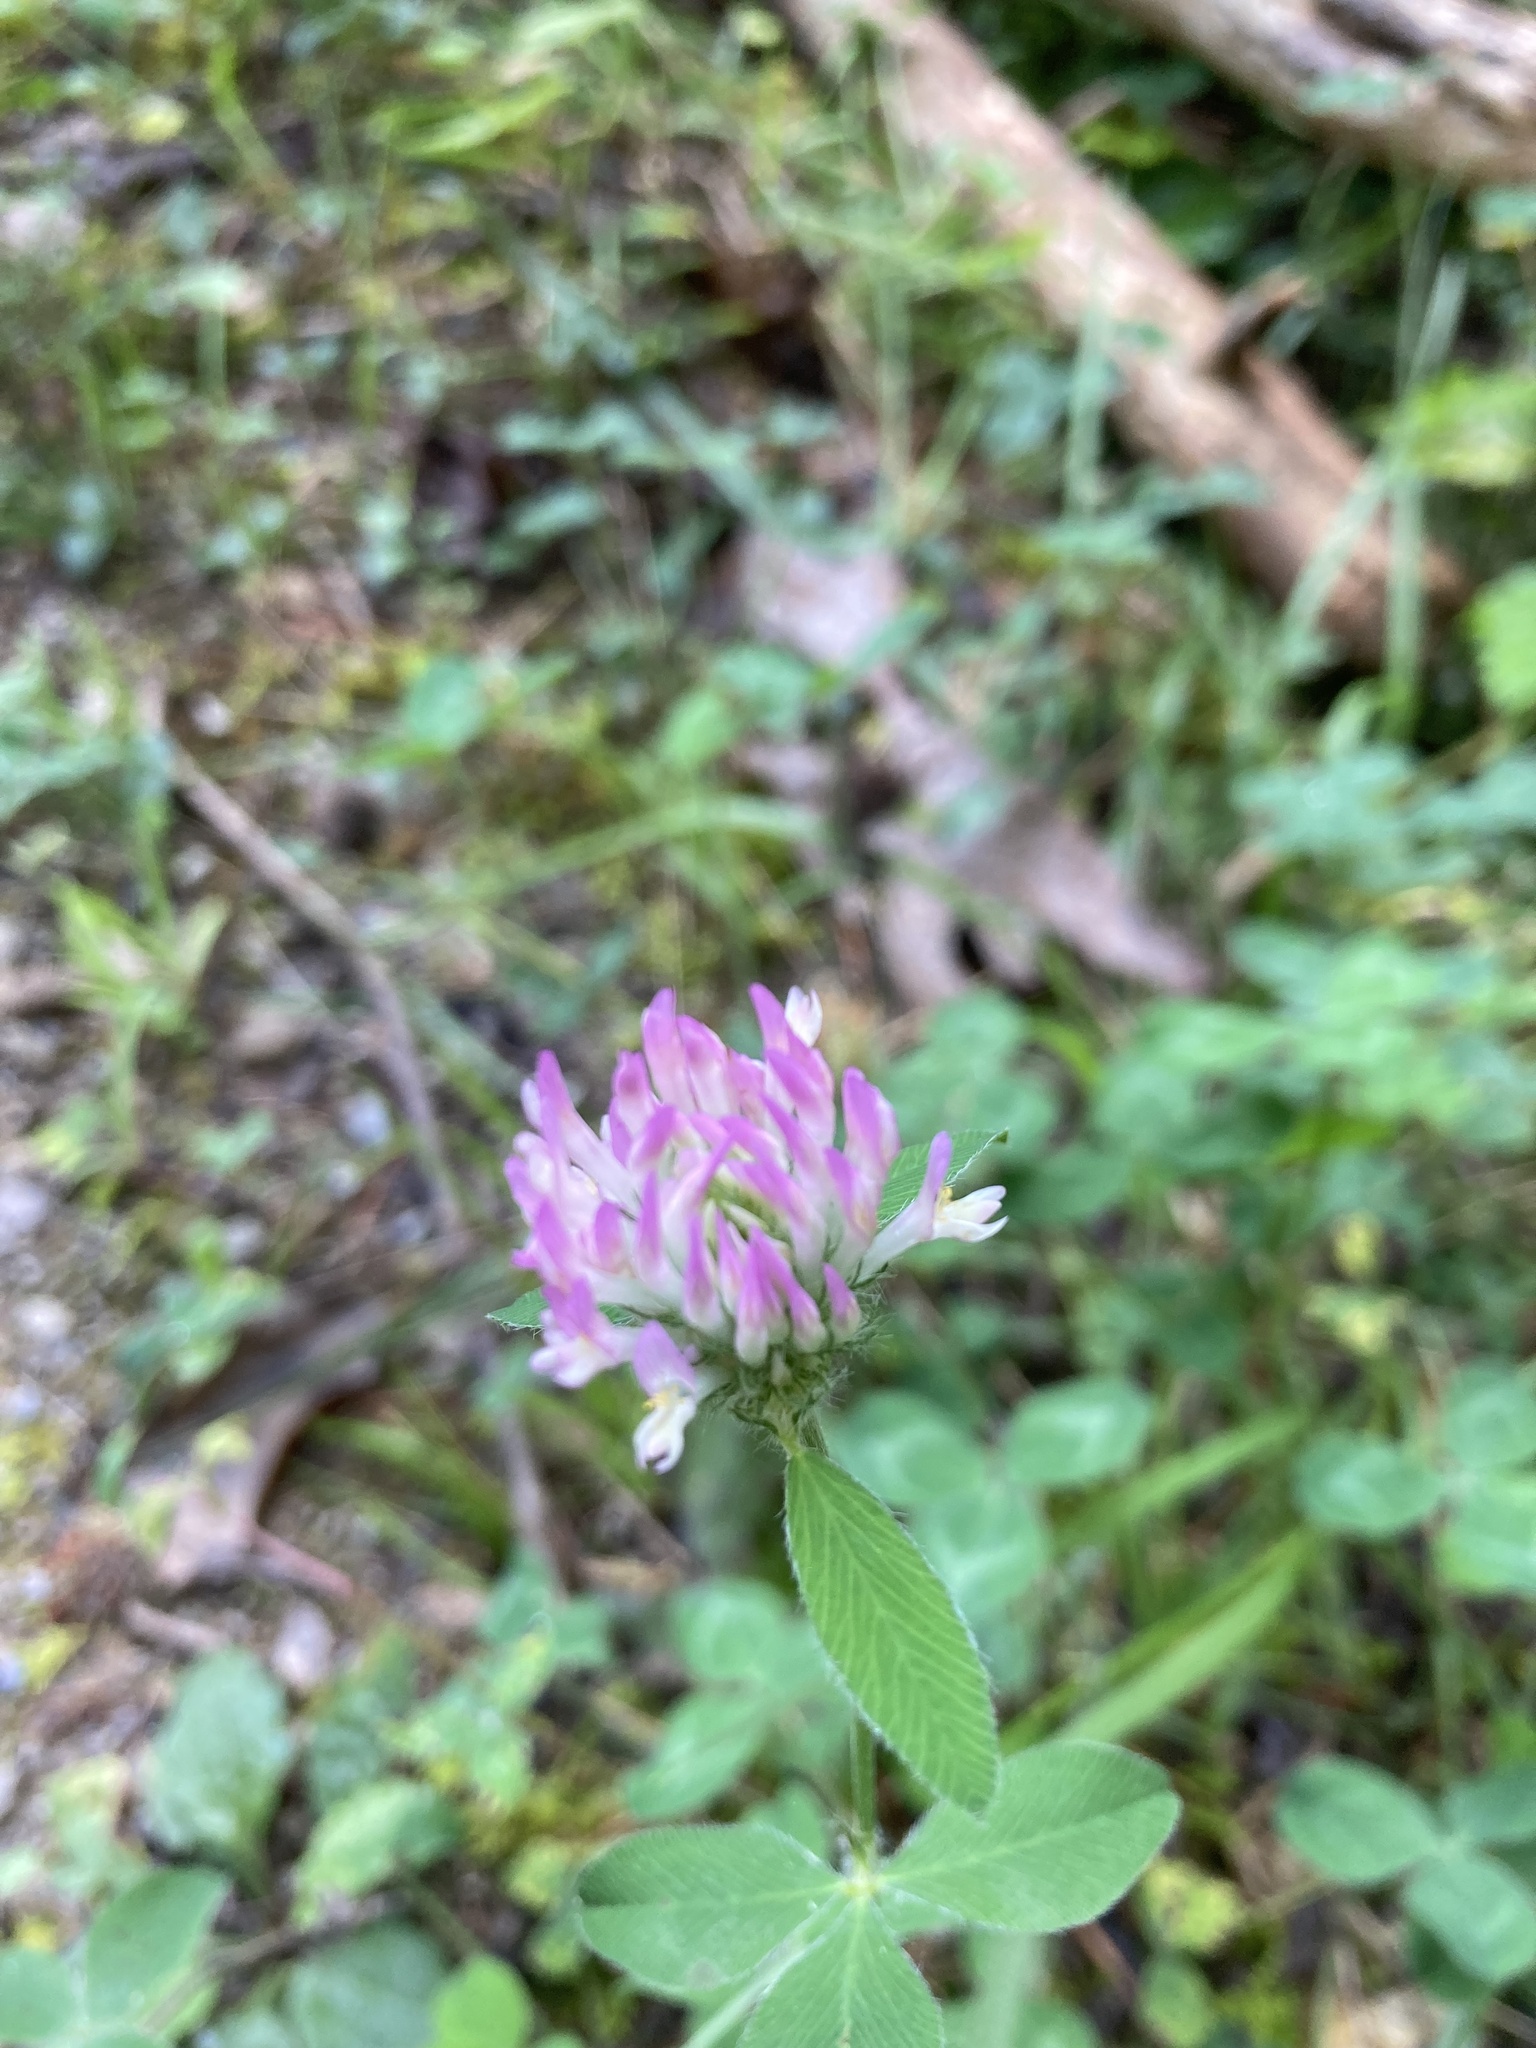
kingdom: Plantae
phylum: Tracheophyta
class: Magnoliopsida
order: Fabales
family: Fabaceae
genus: Trifolium
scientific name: Trifolium pratense
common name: Red clover
